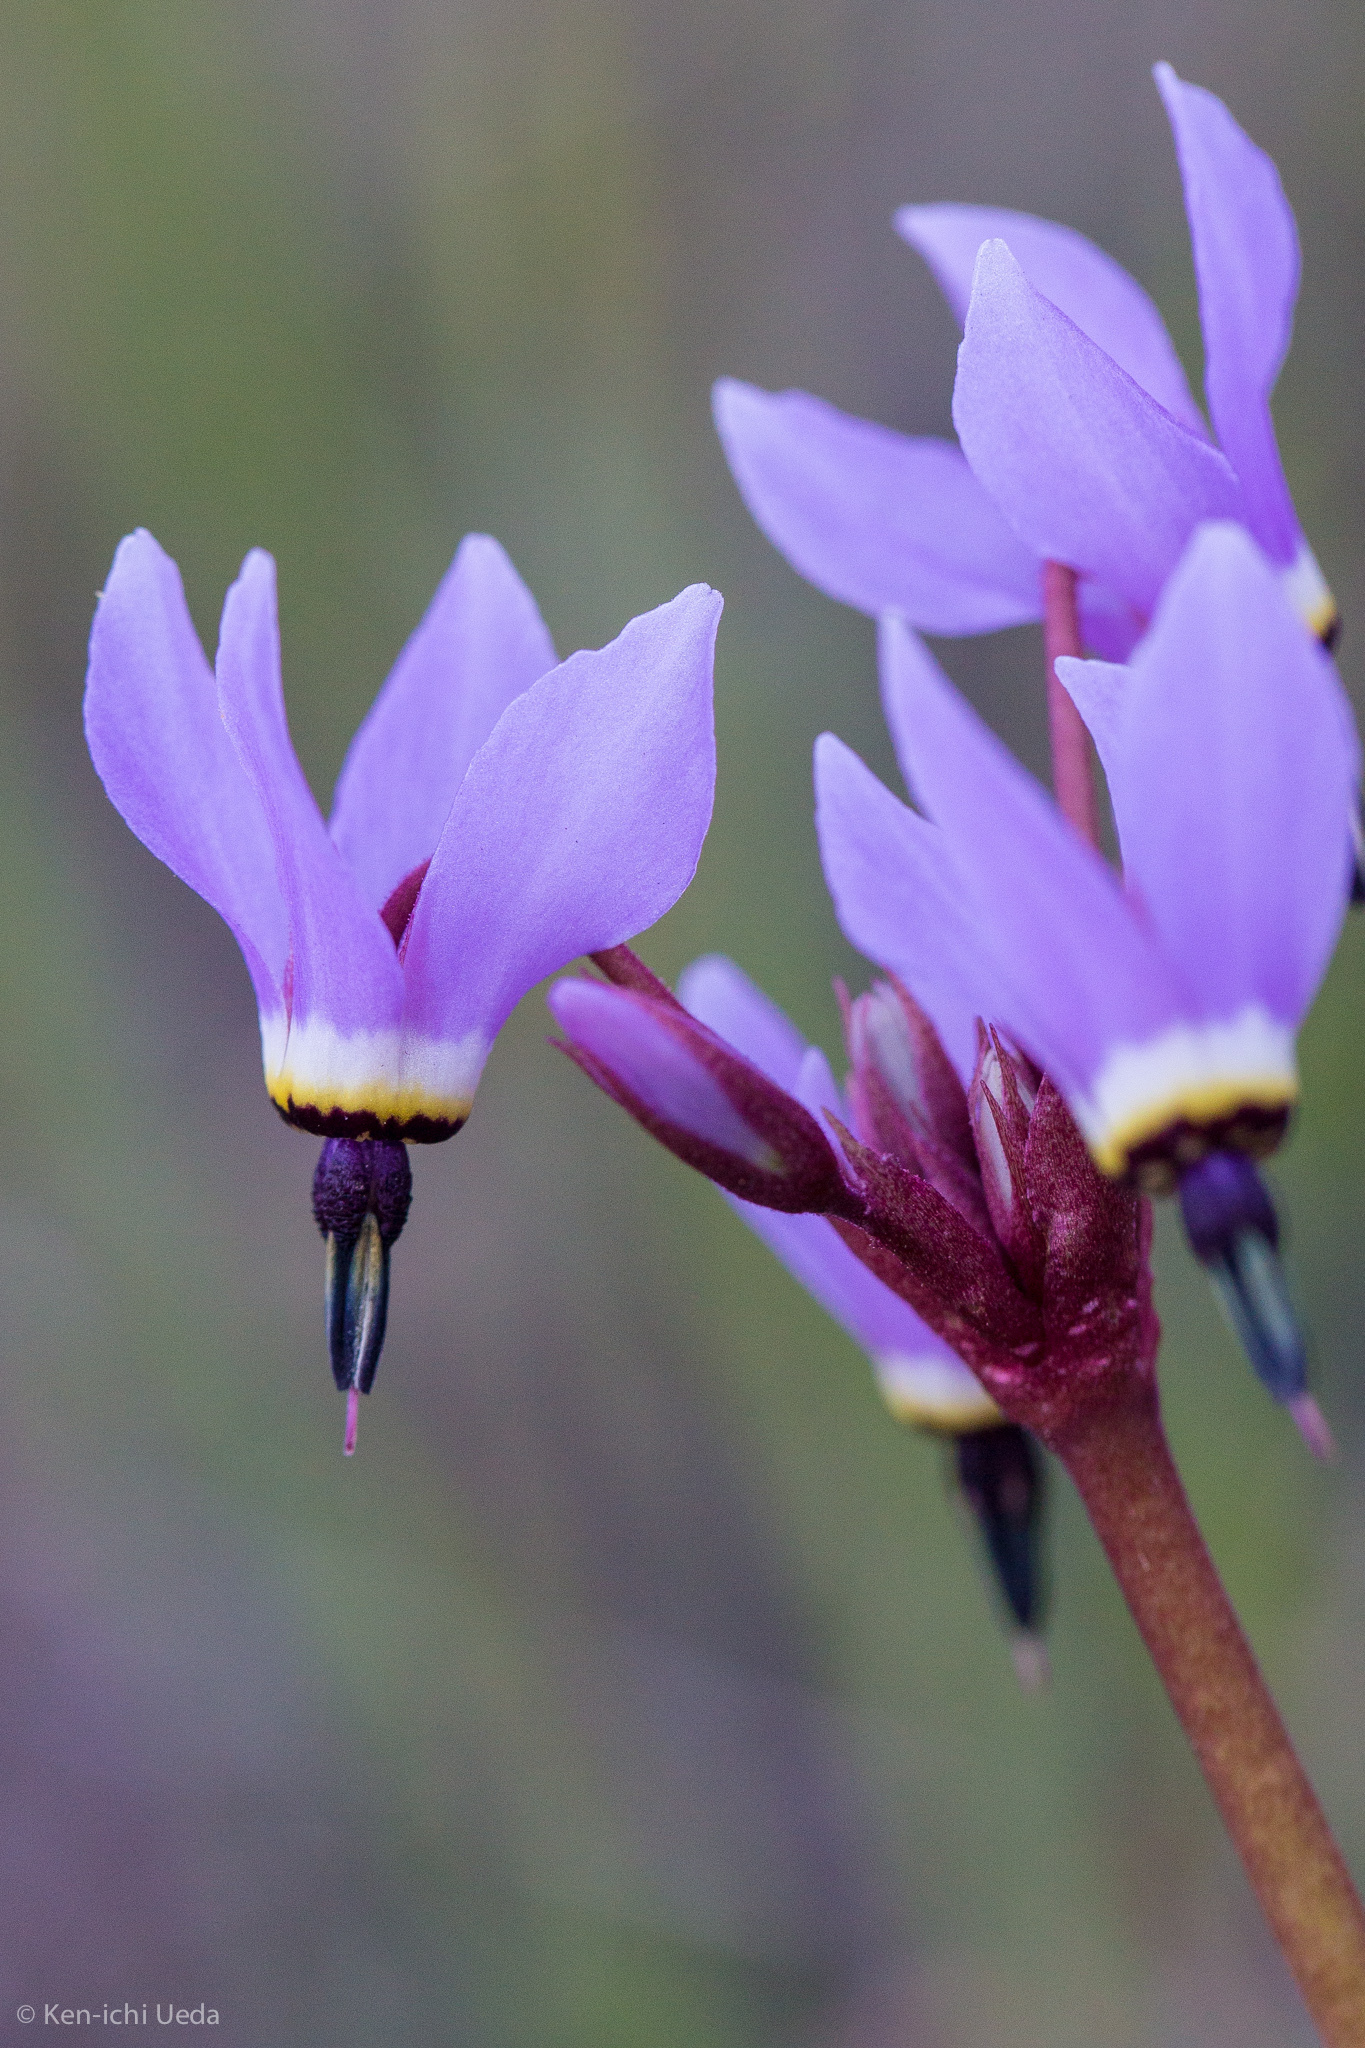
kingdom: Plantae
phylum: Tracheophyta
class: Magnoliopsida
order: Ericales
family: Primulaceae
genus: Dodecatheon
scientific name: Dodecatheon hendersonii
